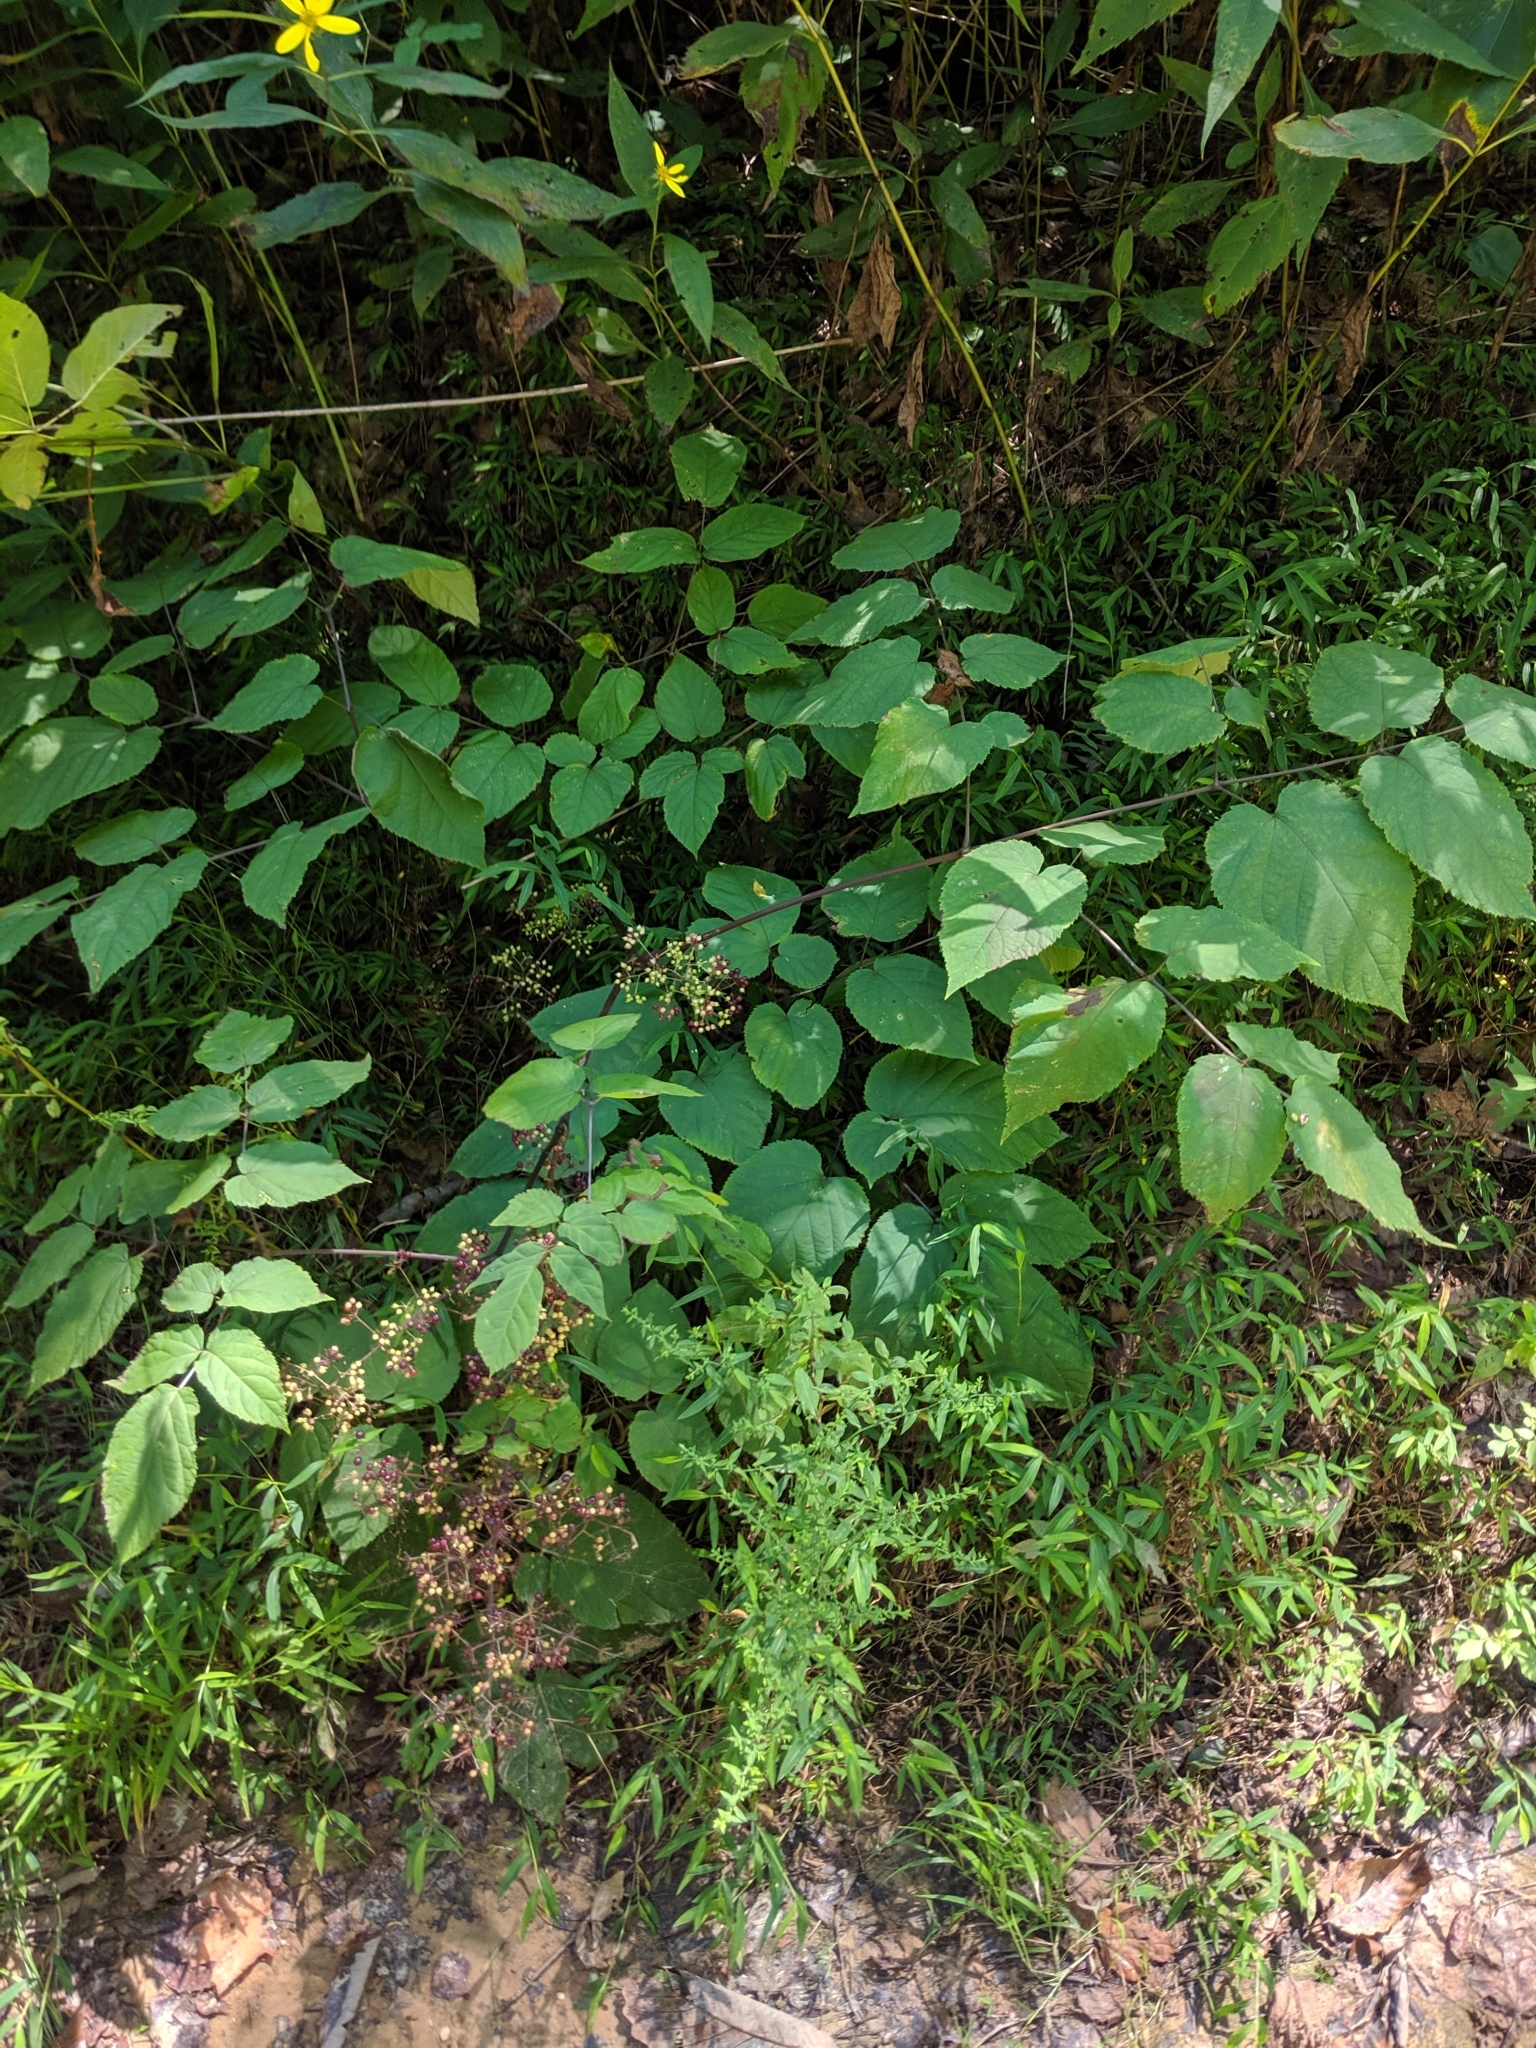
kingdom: Plantae
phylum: Tracheophyta
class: Magnoliopsida
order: Apiales
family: Araliaceae
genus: Aralia
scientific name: Aralia racemosa
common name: American-spikenard
